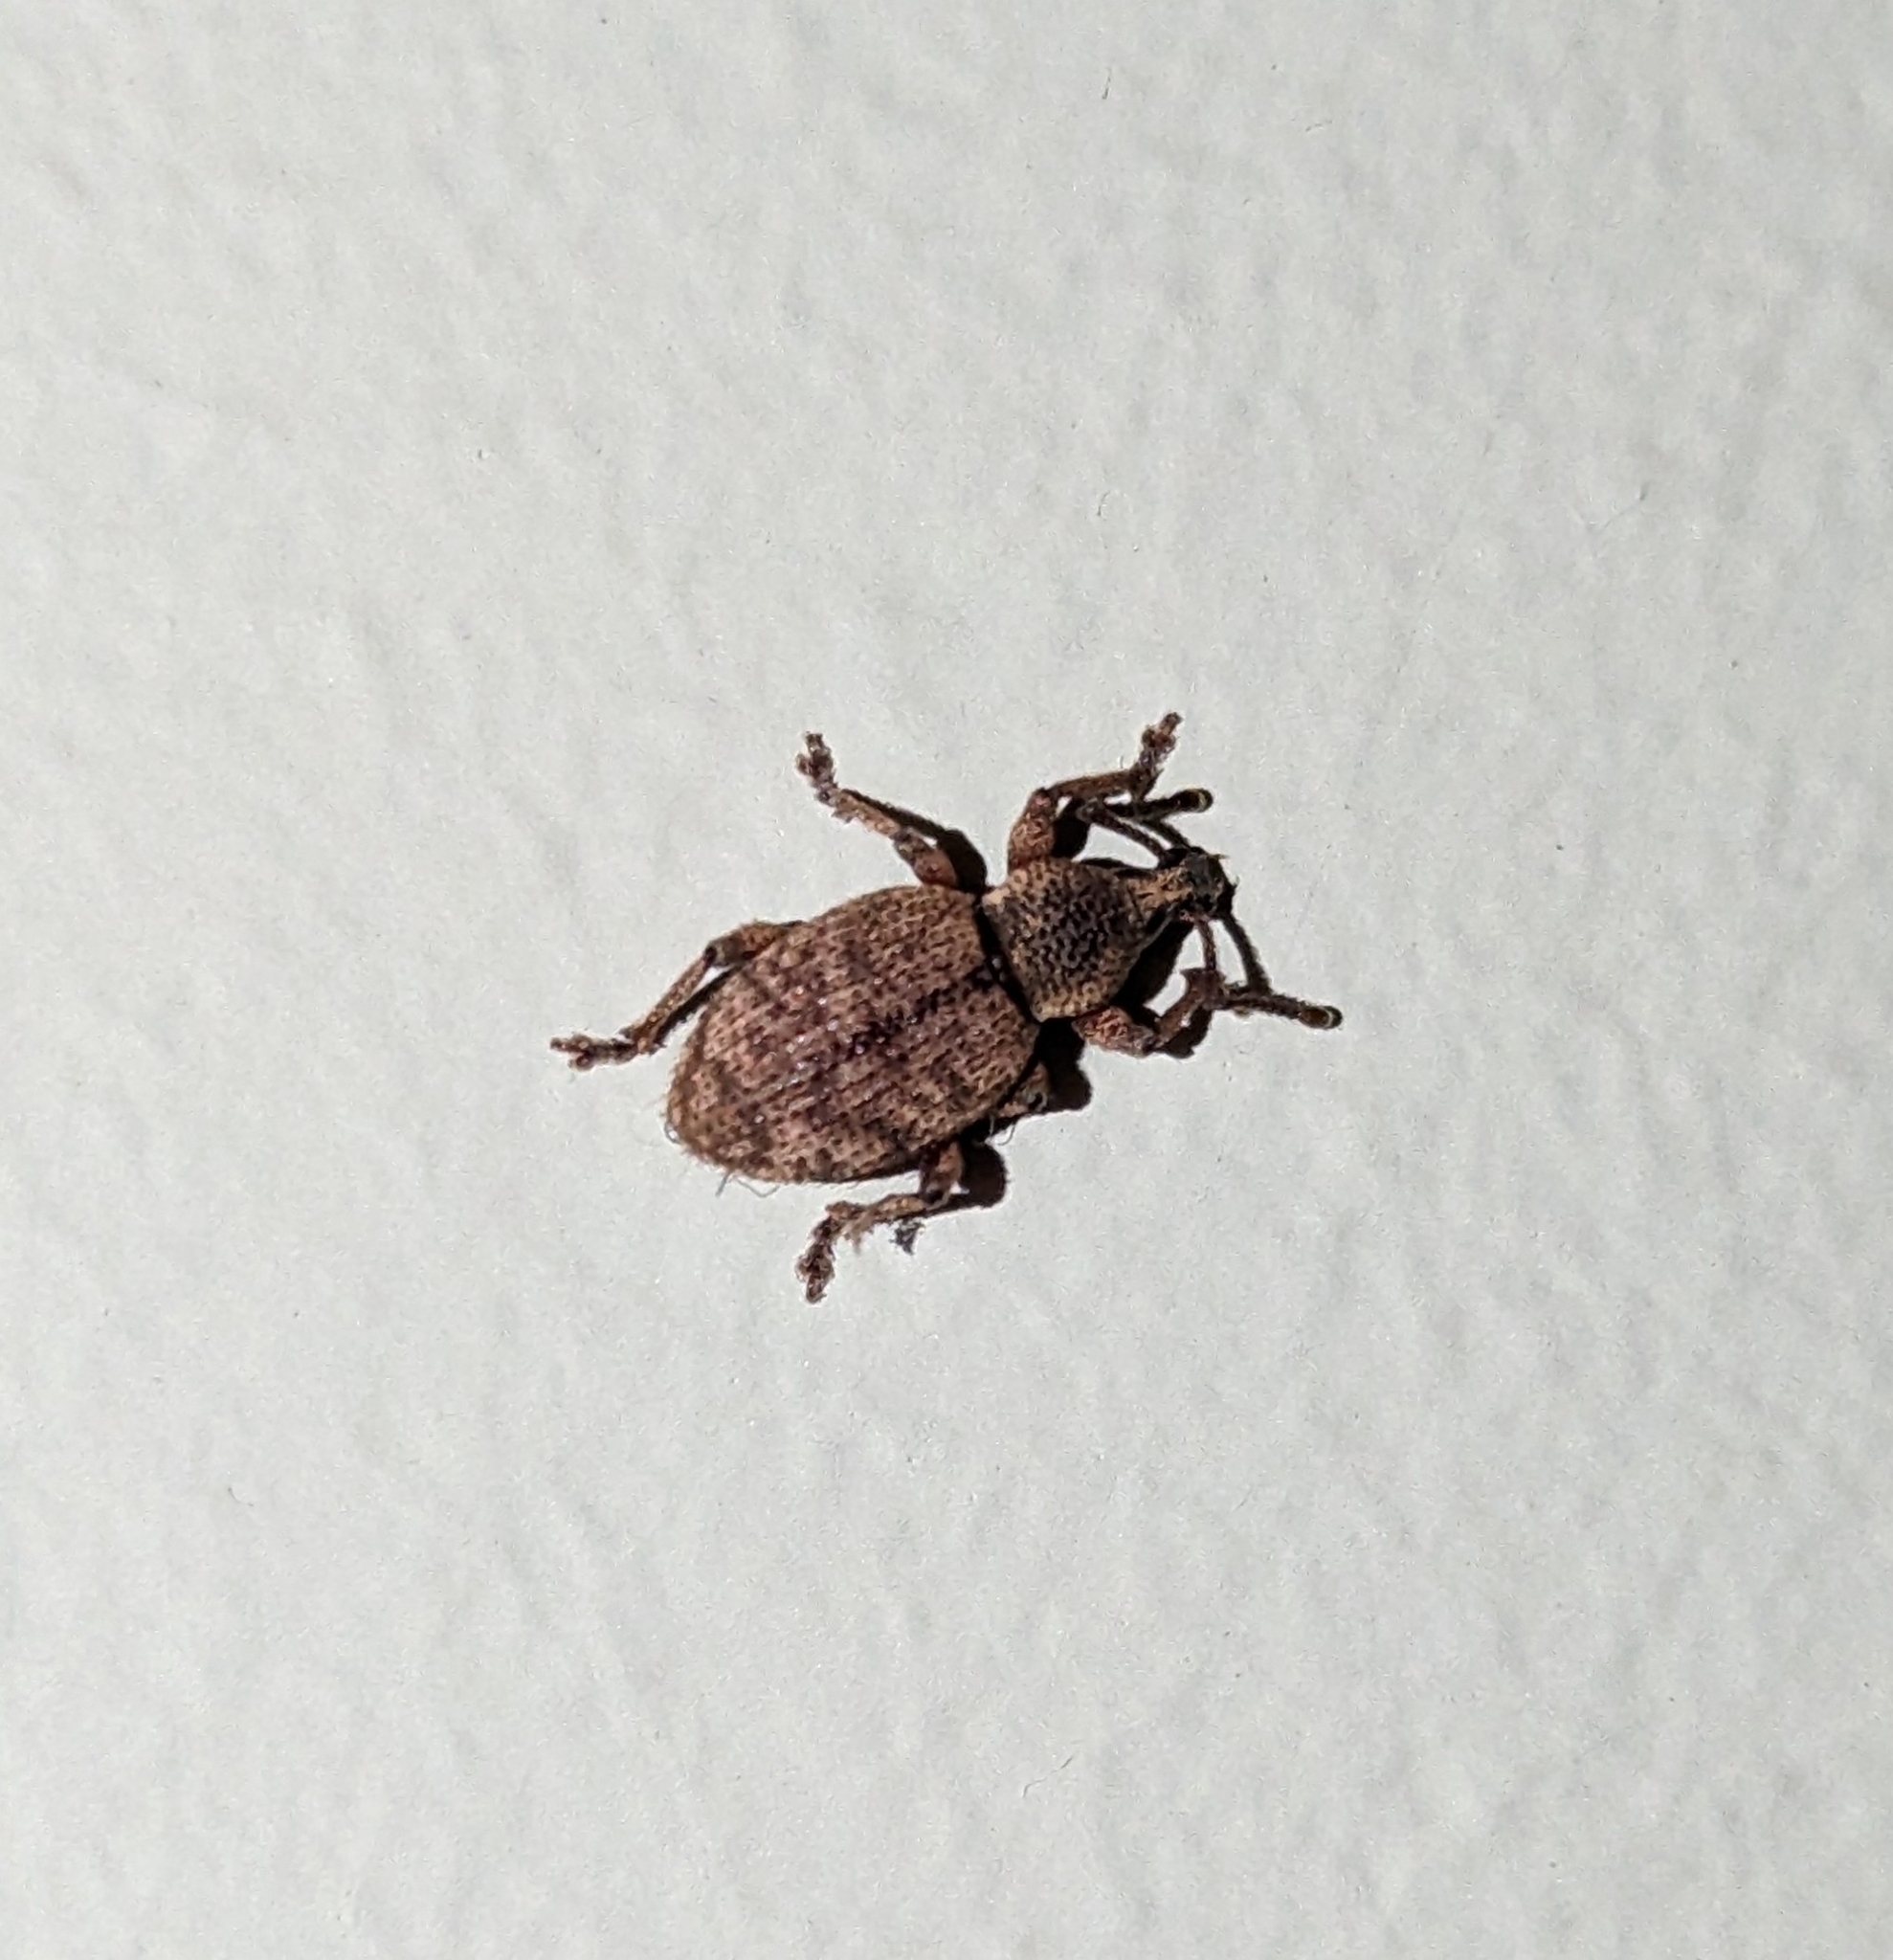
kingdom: Animalia
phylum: Arthropoda
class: Insecta
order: Coleoptera
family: Curculionidae
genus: Otiorhynchus
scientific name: Otiorhynchus singularis
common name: Clay-coloured weevil
